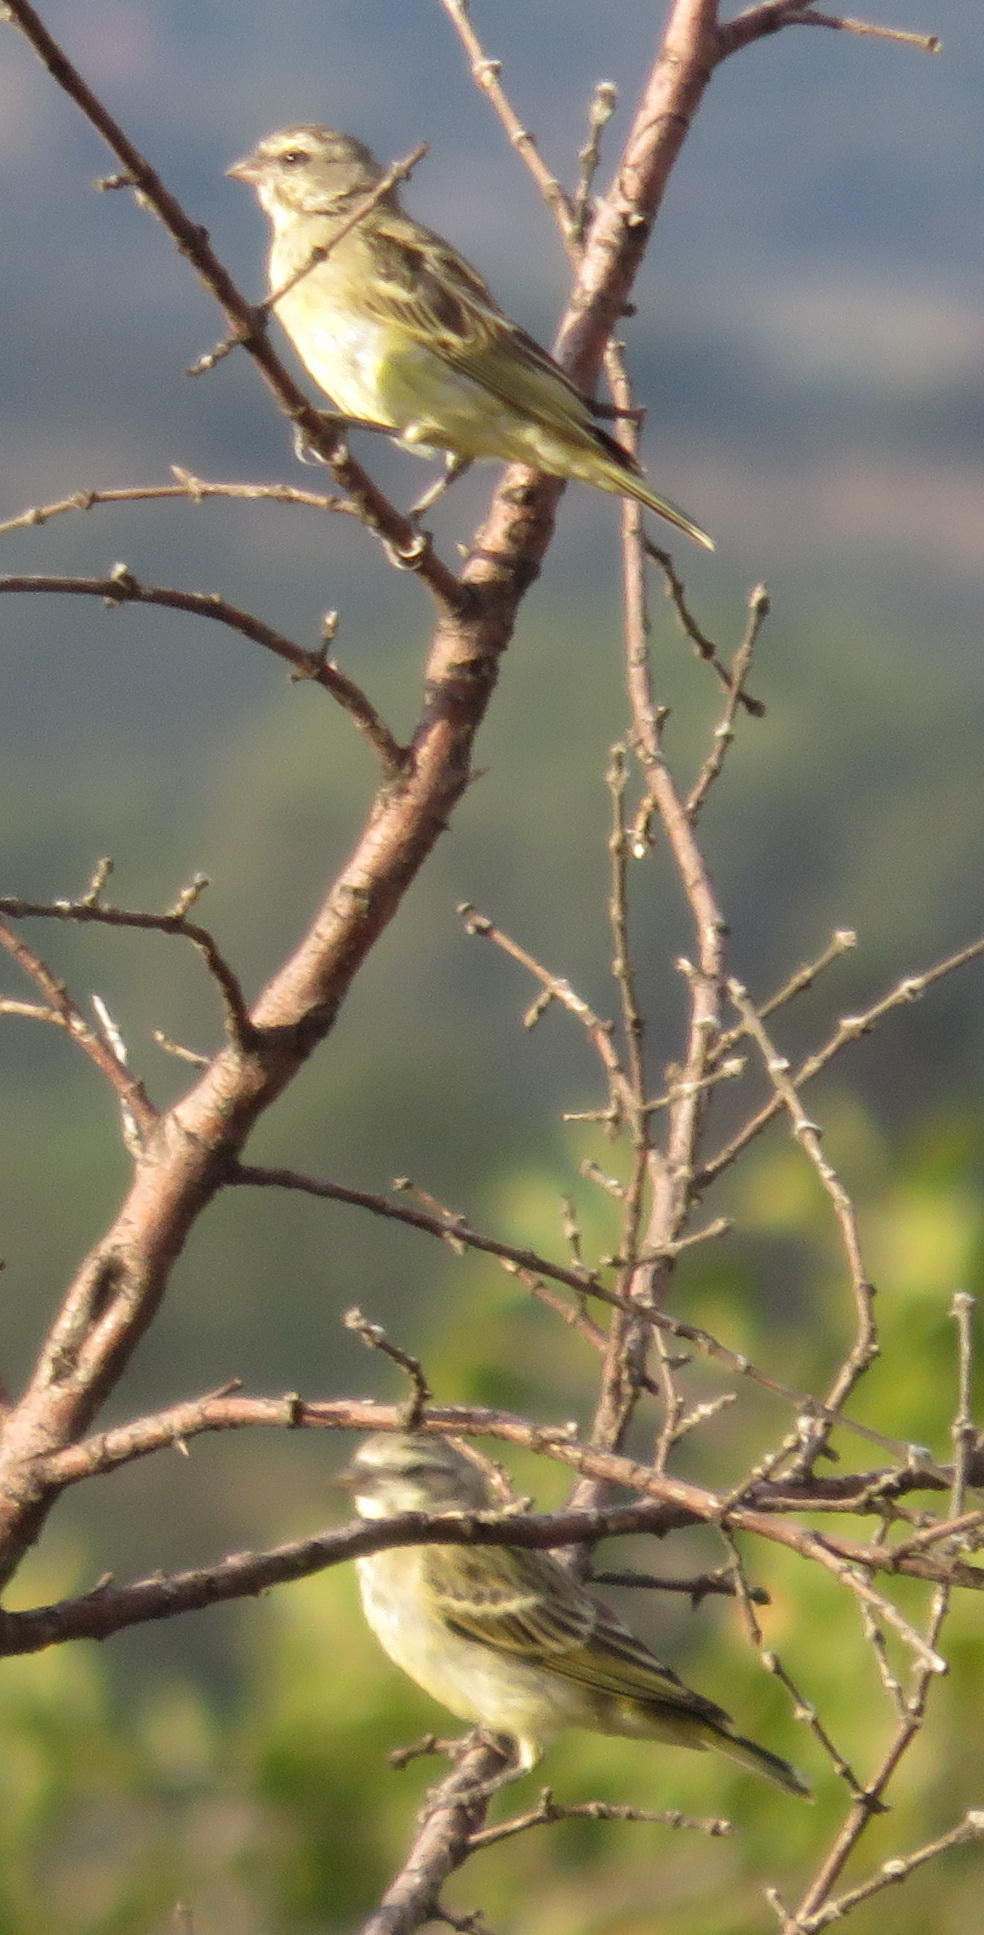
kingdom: Animalia
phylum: Chordata
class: Aves
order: Passeriformes
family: Fringillidae
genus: Crithagra
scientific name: Crithagra mozambica
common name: Yellow-fronted canary
